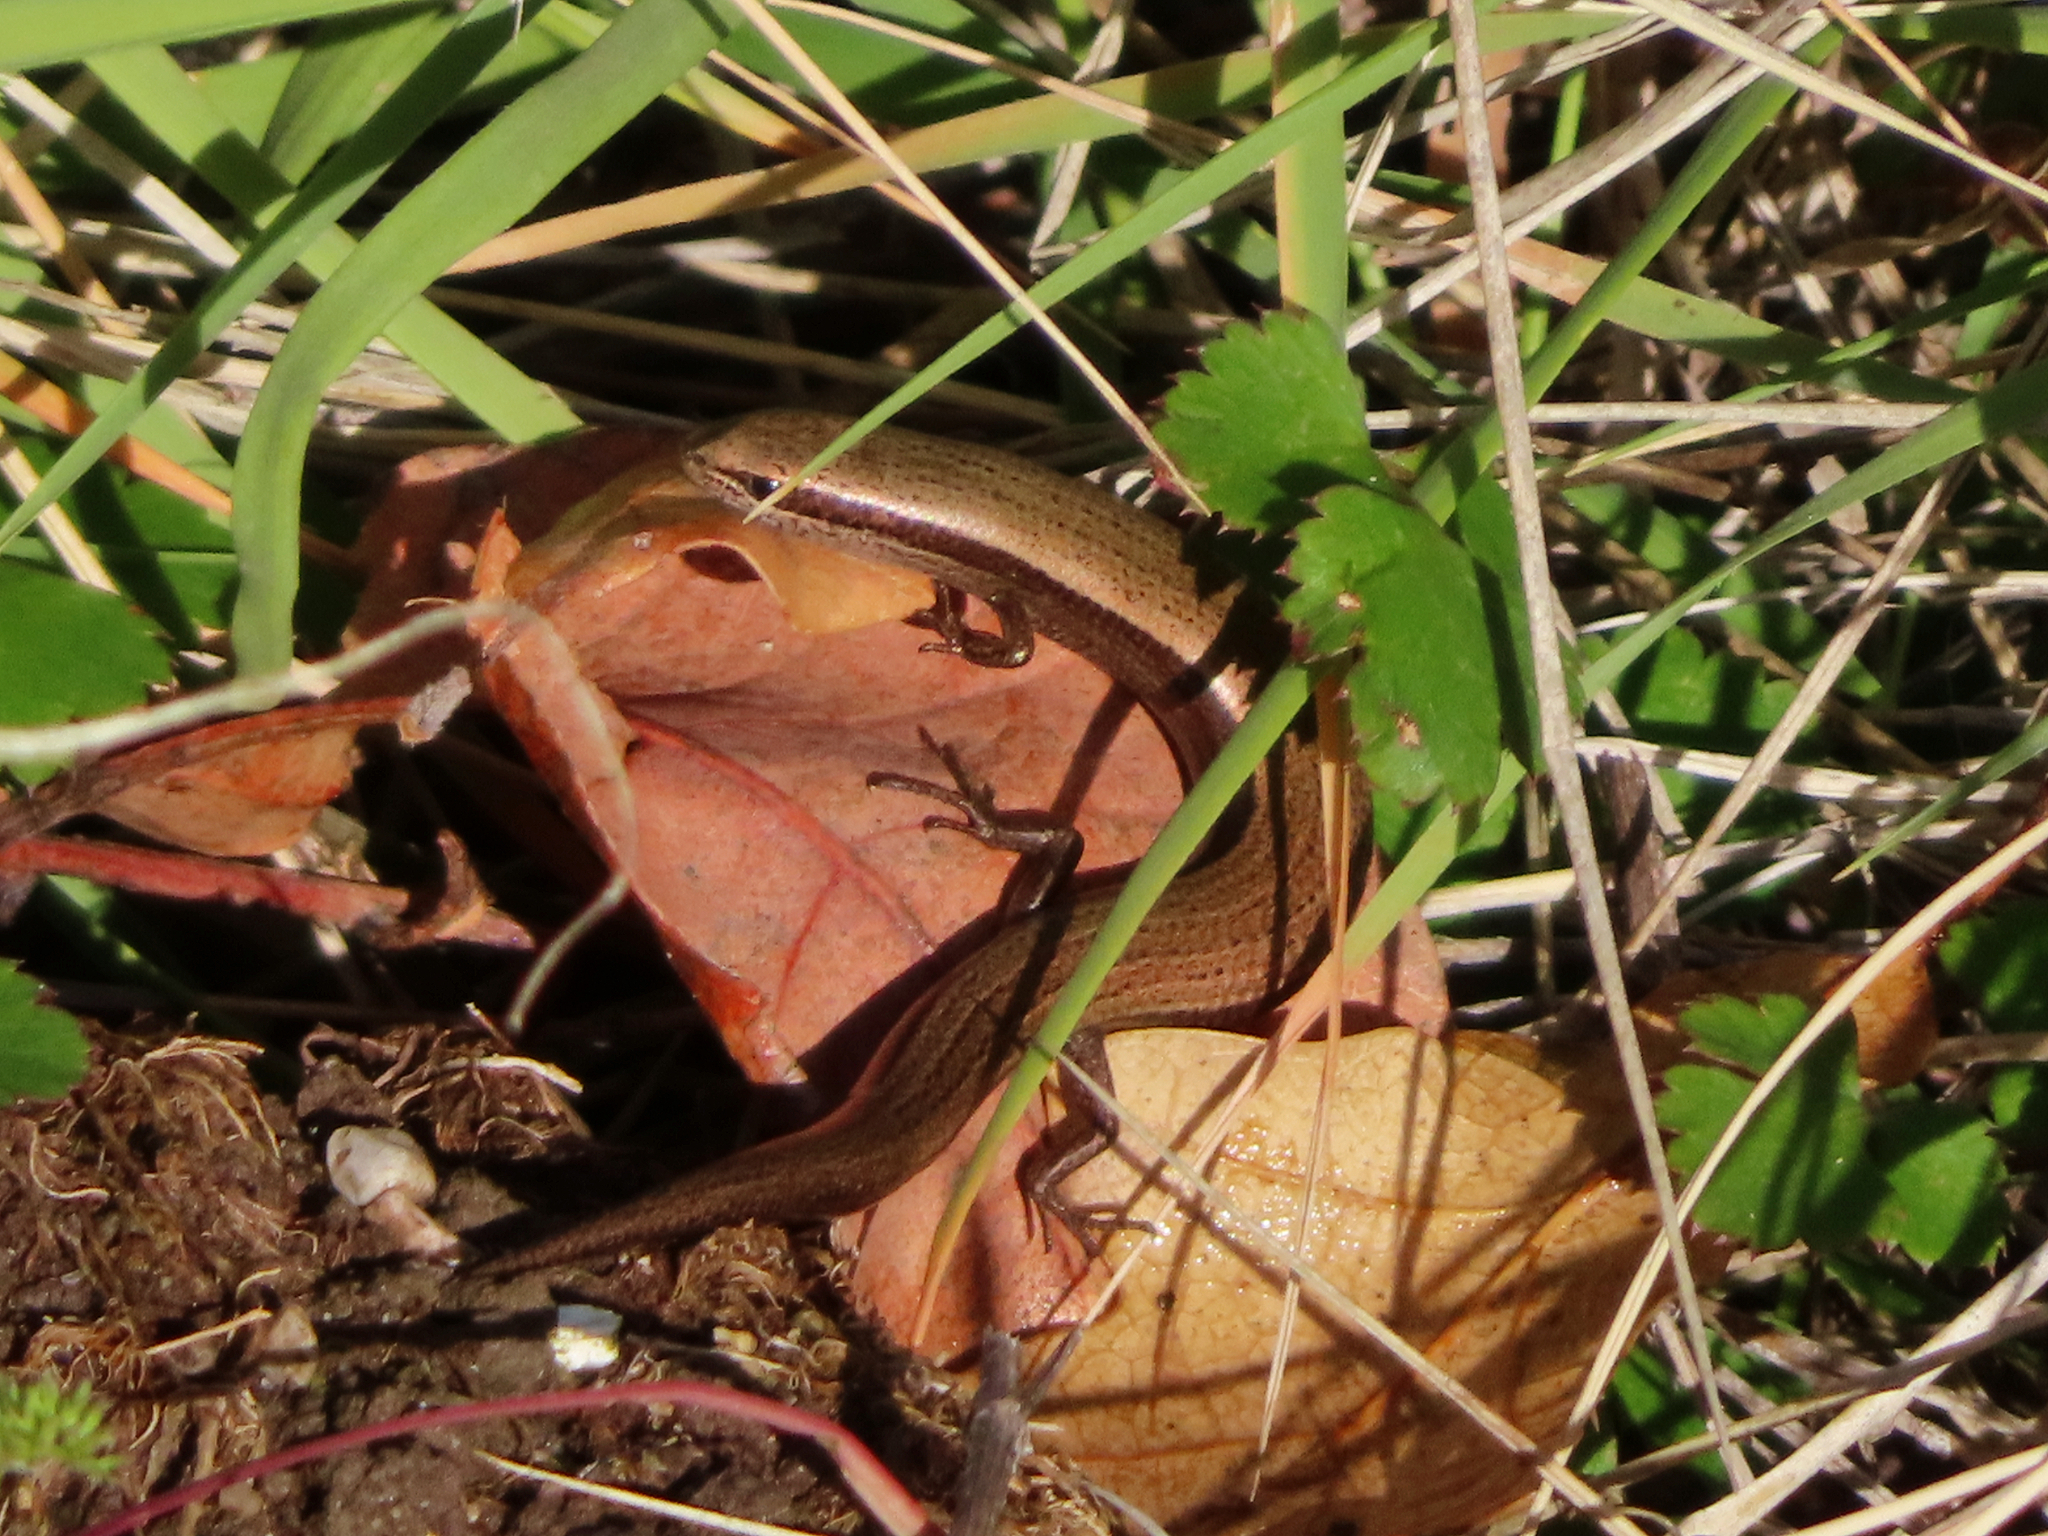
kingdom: Animalia
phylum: Chordata
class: Squamata
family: Scincidae
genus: Ablepharus
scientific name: Ablepharus kitaibelii
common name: Juniper skink
